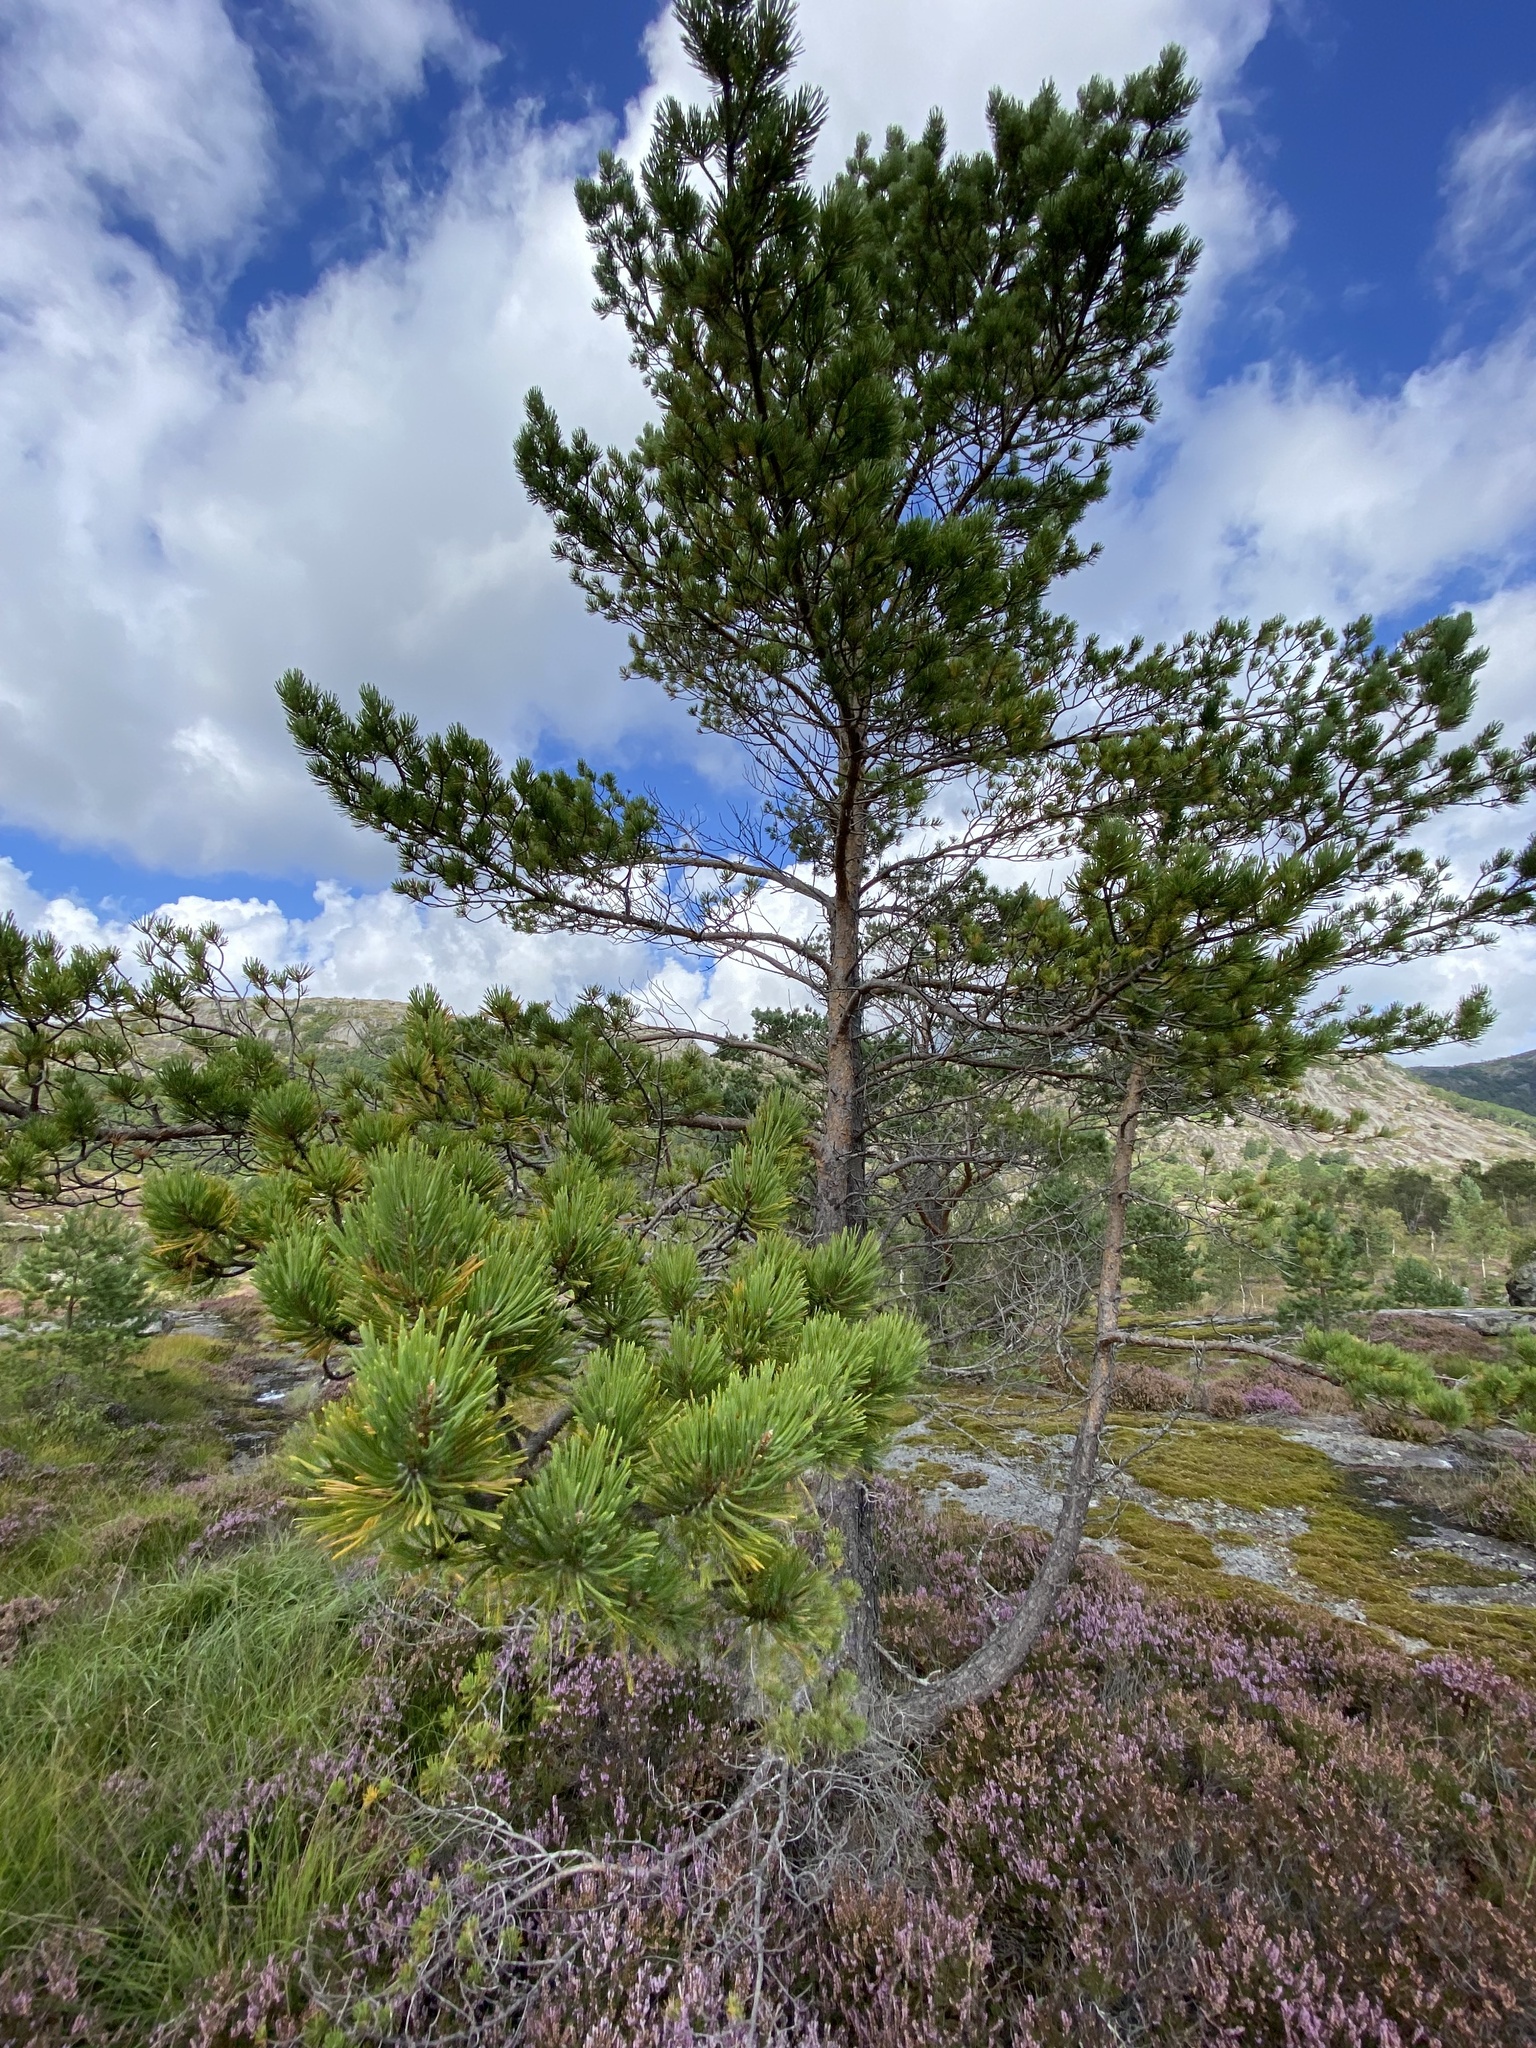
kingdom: Plantae
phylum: Tracheophyta
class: Pinopsida
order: Pinales
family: Pinaceae
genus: Pinus
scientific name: Pinus sylvestris
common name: Scots pine
